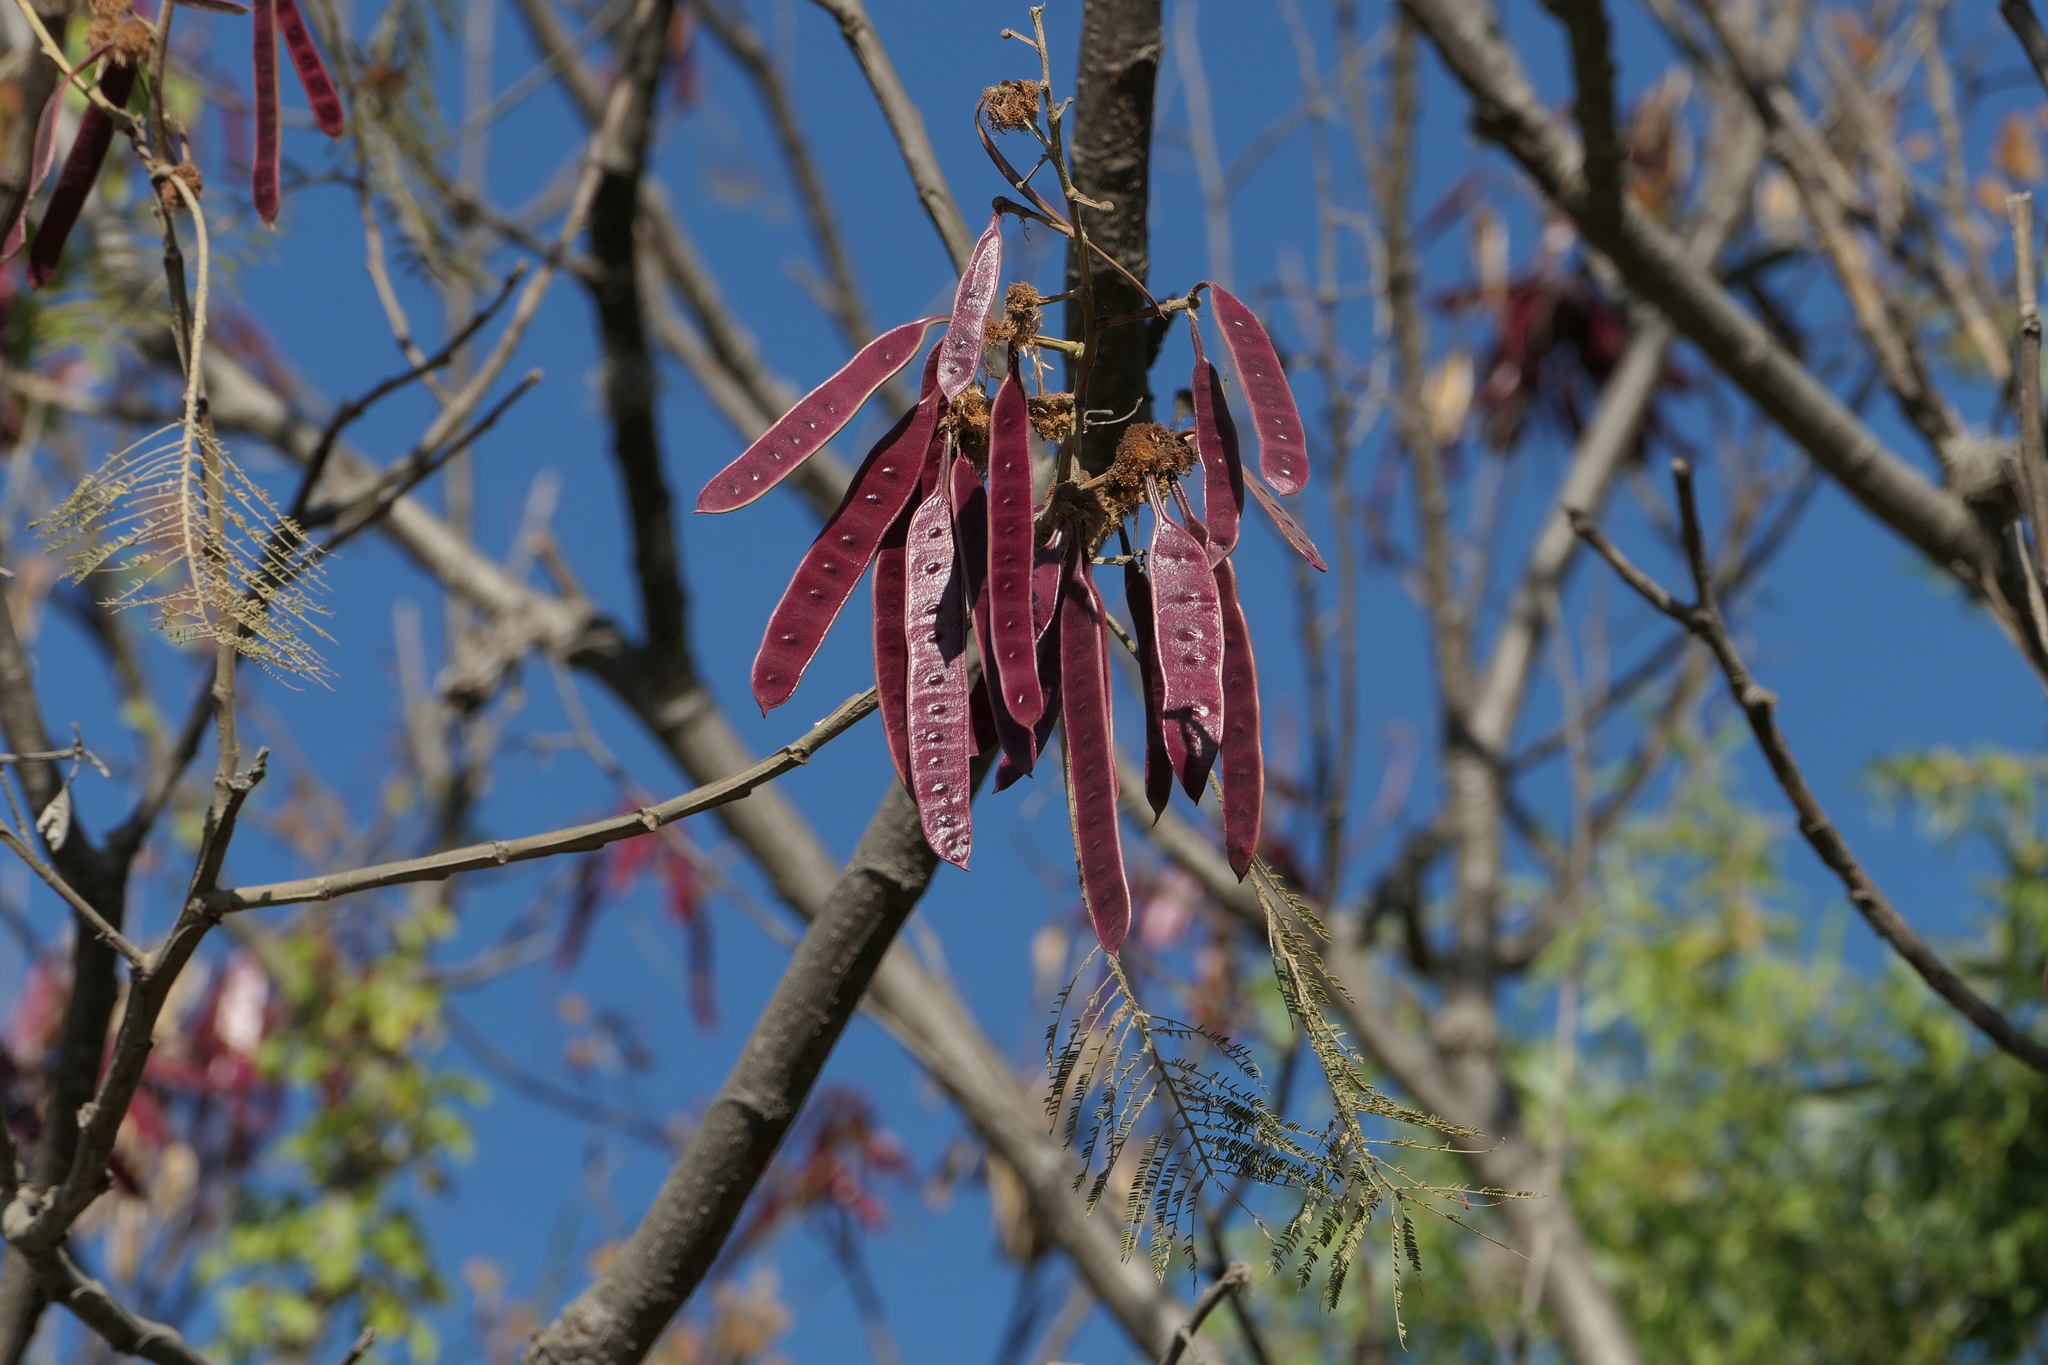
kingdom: Plantae
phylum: Tracheophyta
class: Magnoliopsida
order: Fabales
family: Fabaceae
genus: Leucaena
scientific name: Leucaena esculenta
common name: Guaje
